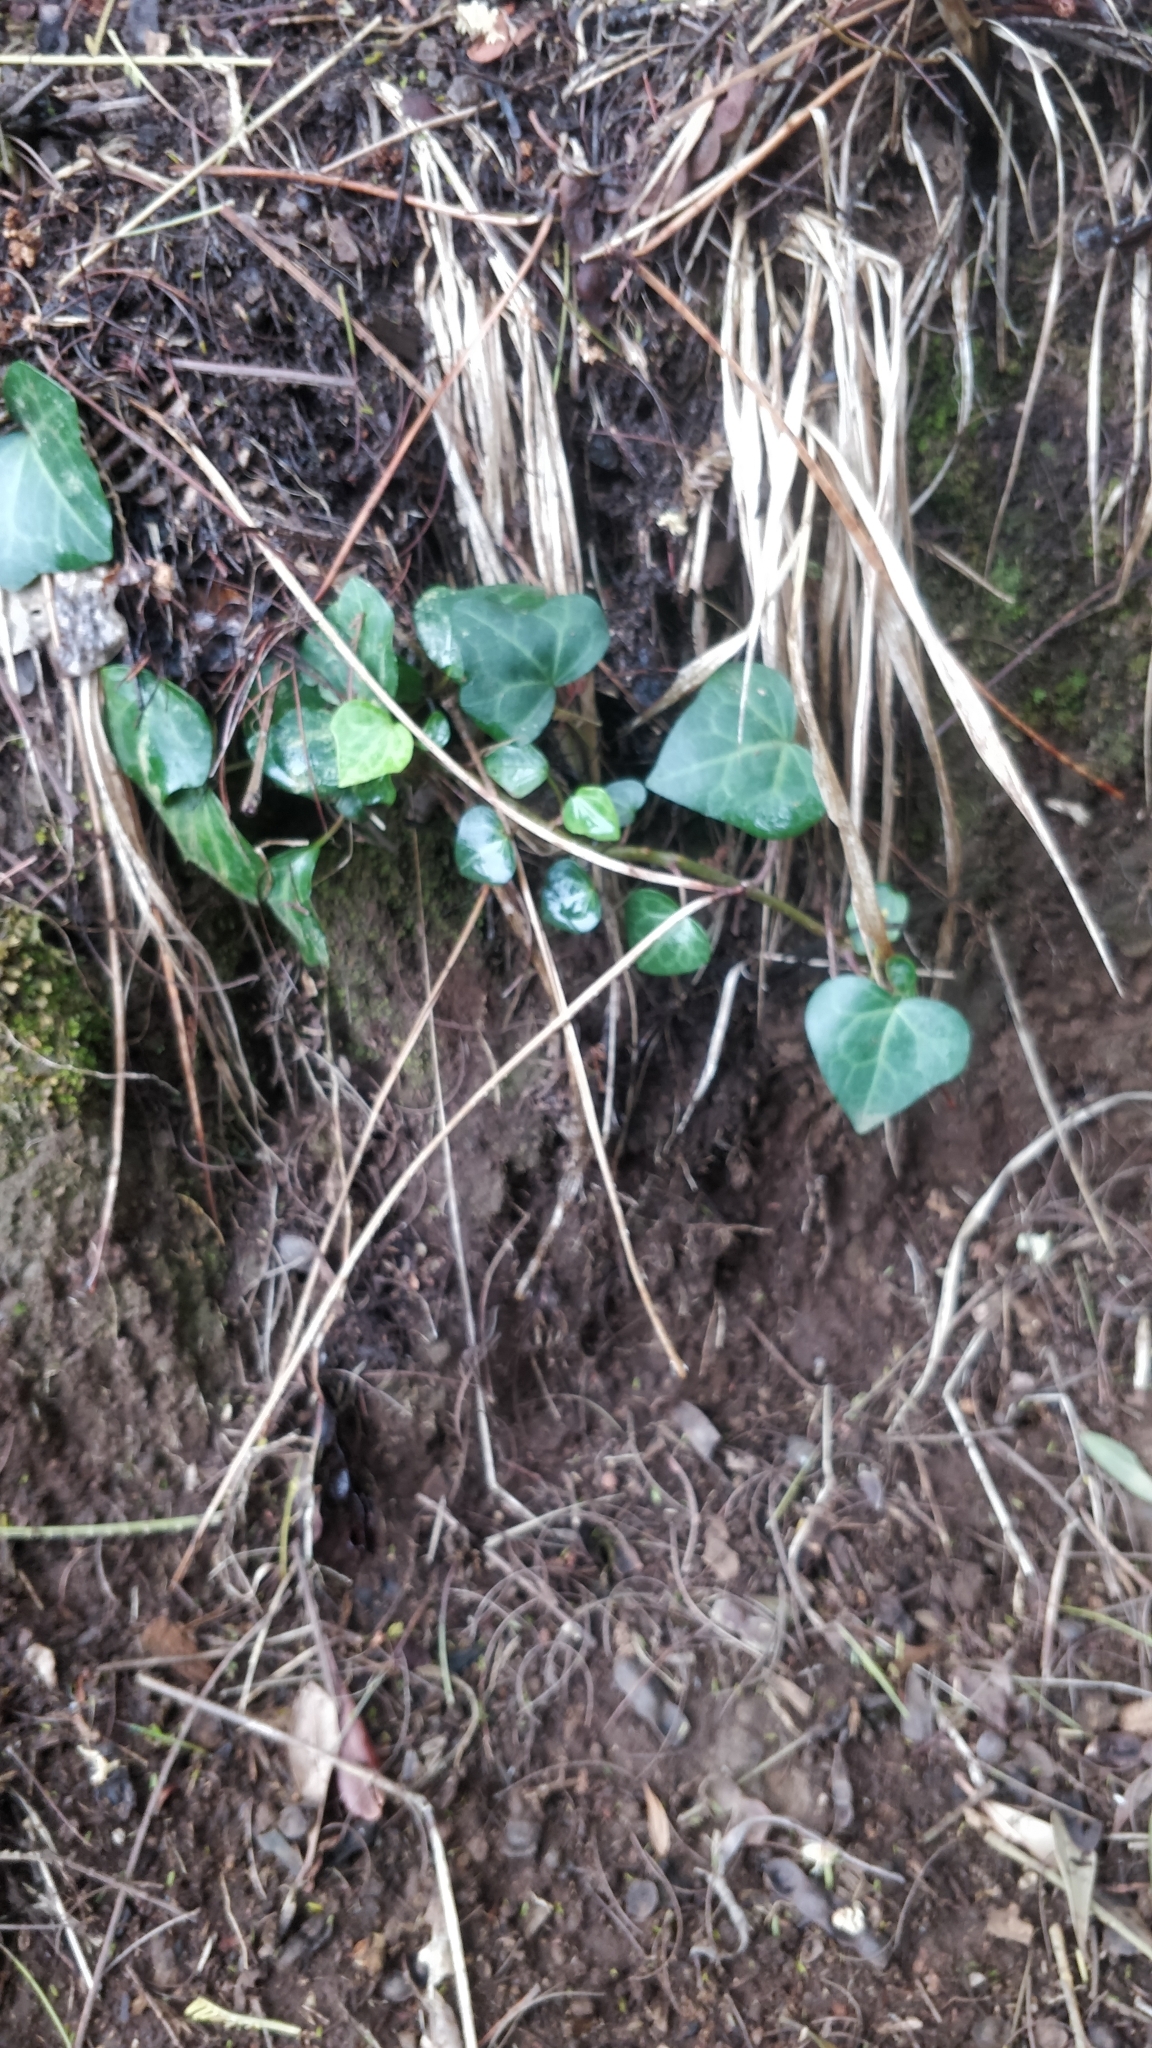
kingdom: Plantae
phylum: Tracheophyta
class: Magnoliopsida
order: Apiales
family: Araliaceae
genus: Hedera
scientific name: Hedera maderensis
